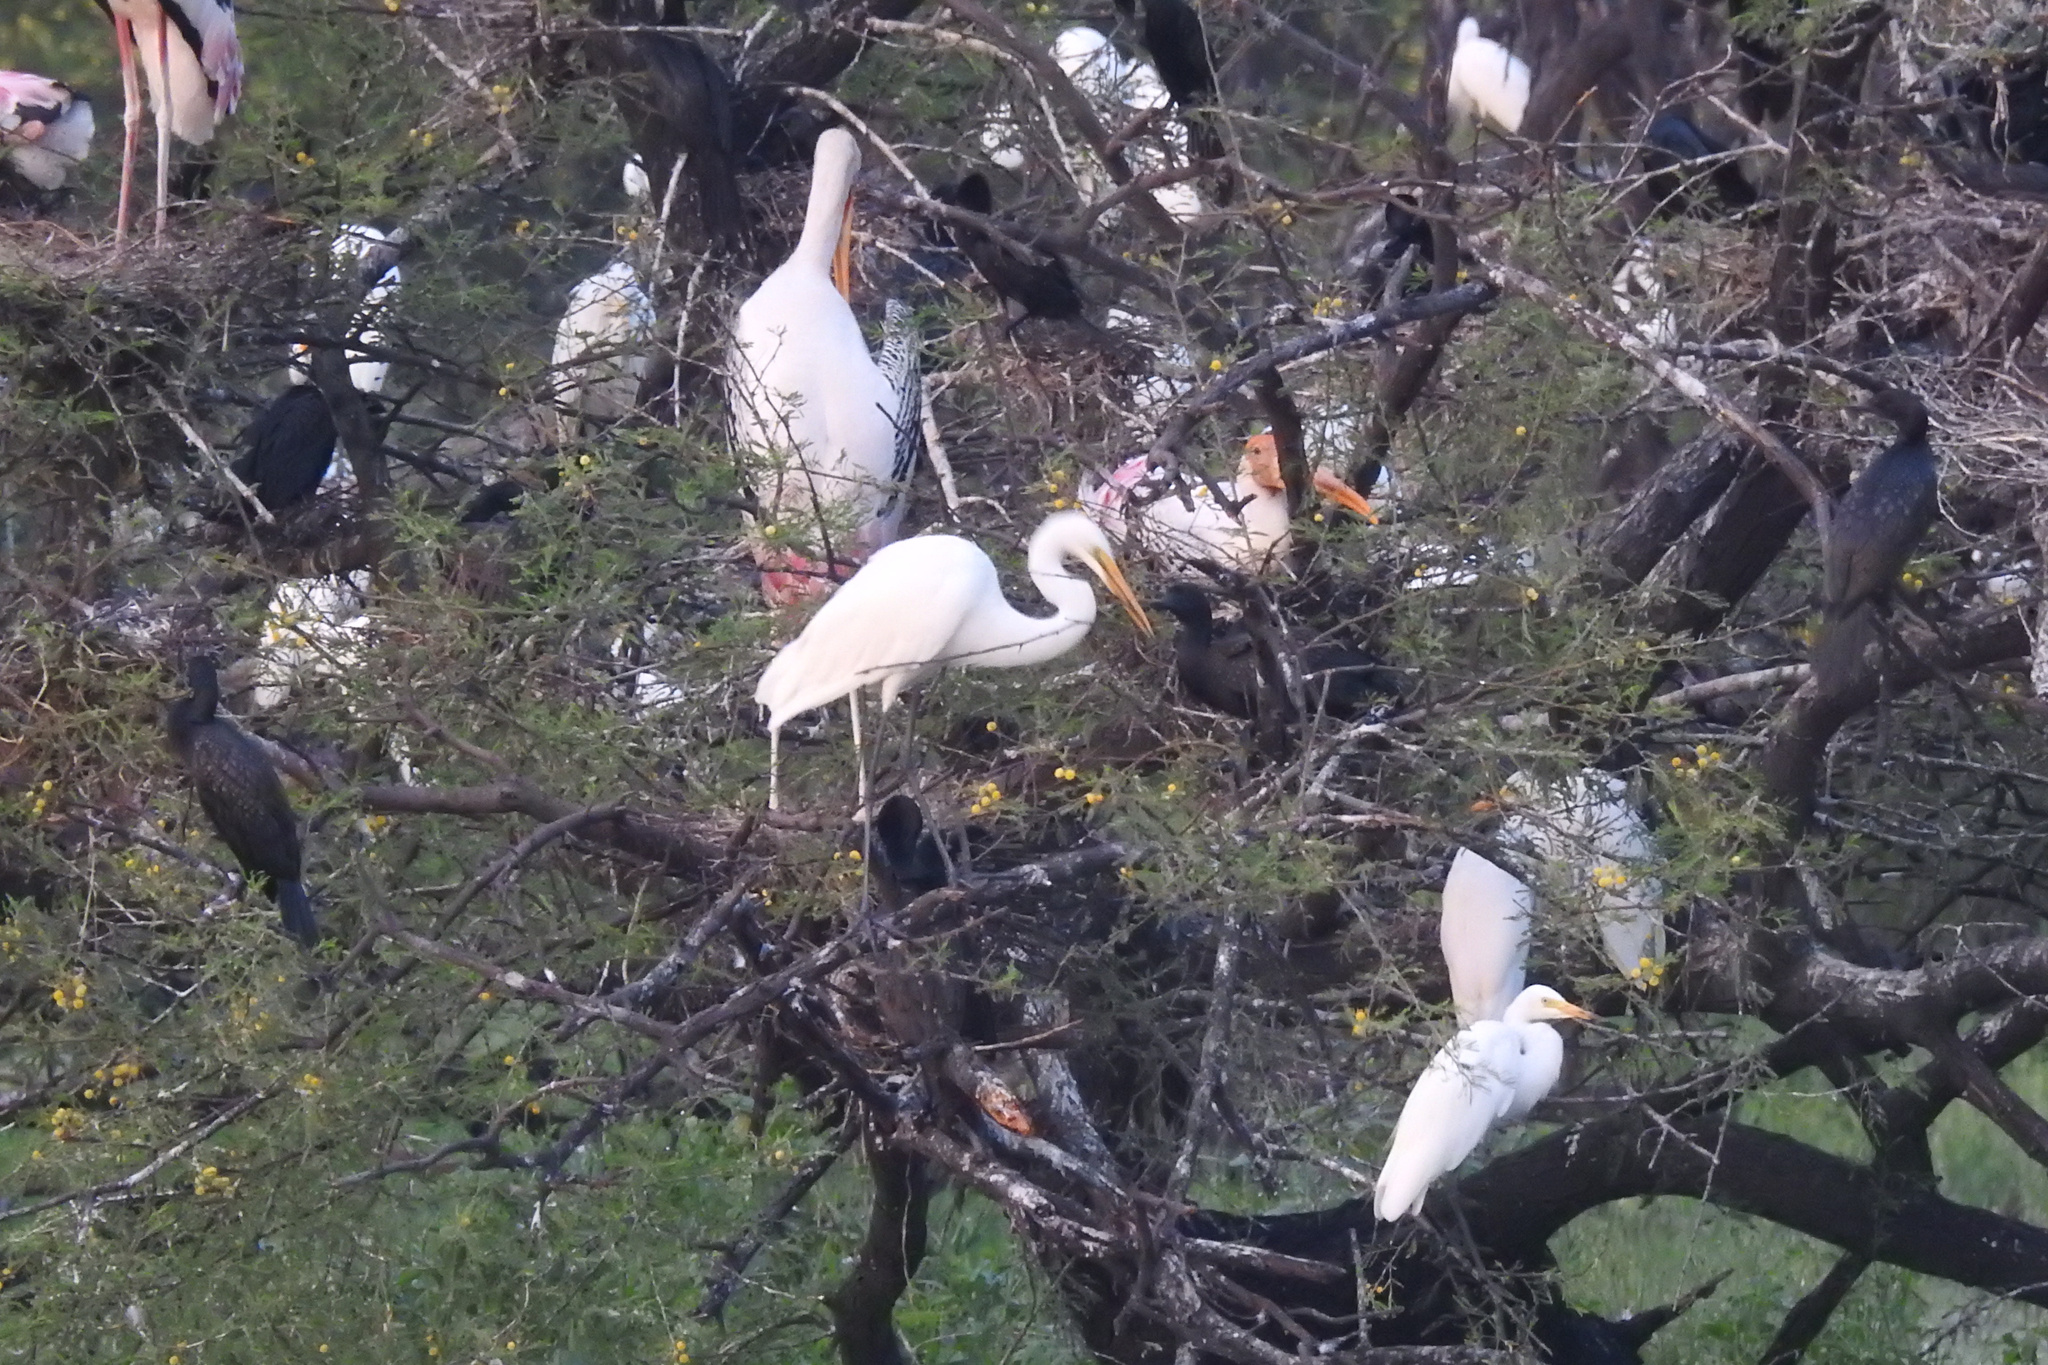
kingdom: Animalia
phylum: Chordata
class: Aves
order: Pelecaniformes
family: Ardeidae
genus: Ardea
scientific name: Ardea alba
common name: Great egret
